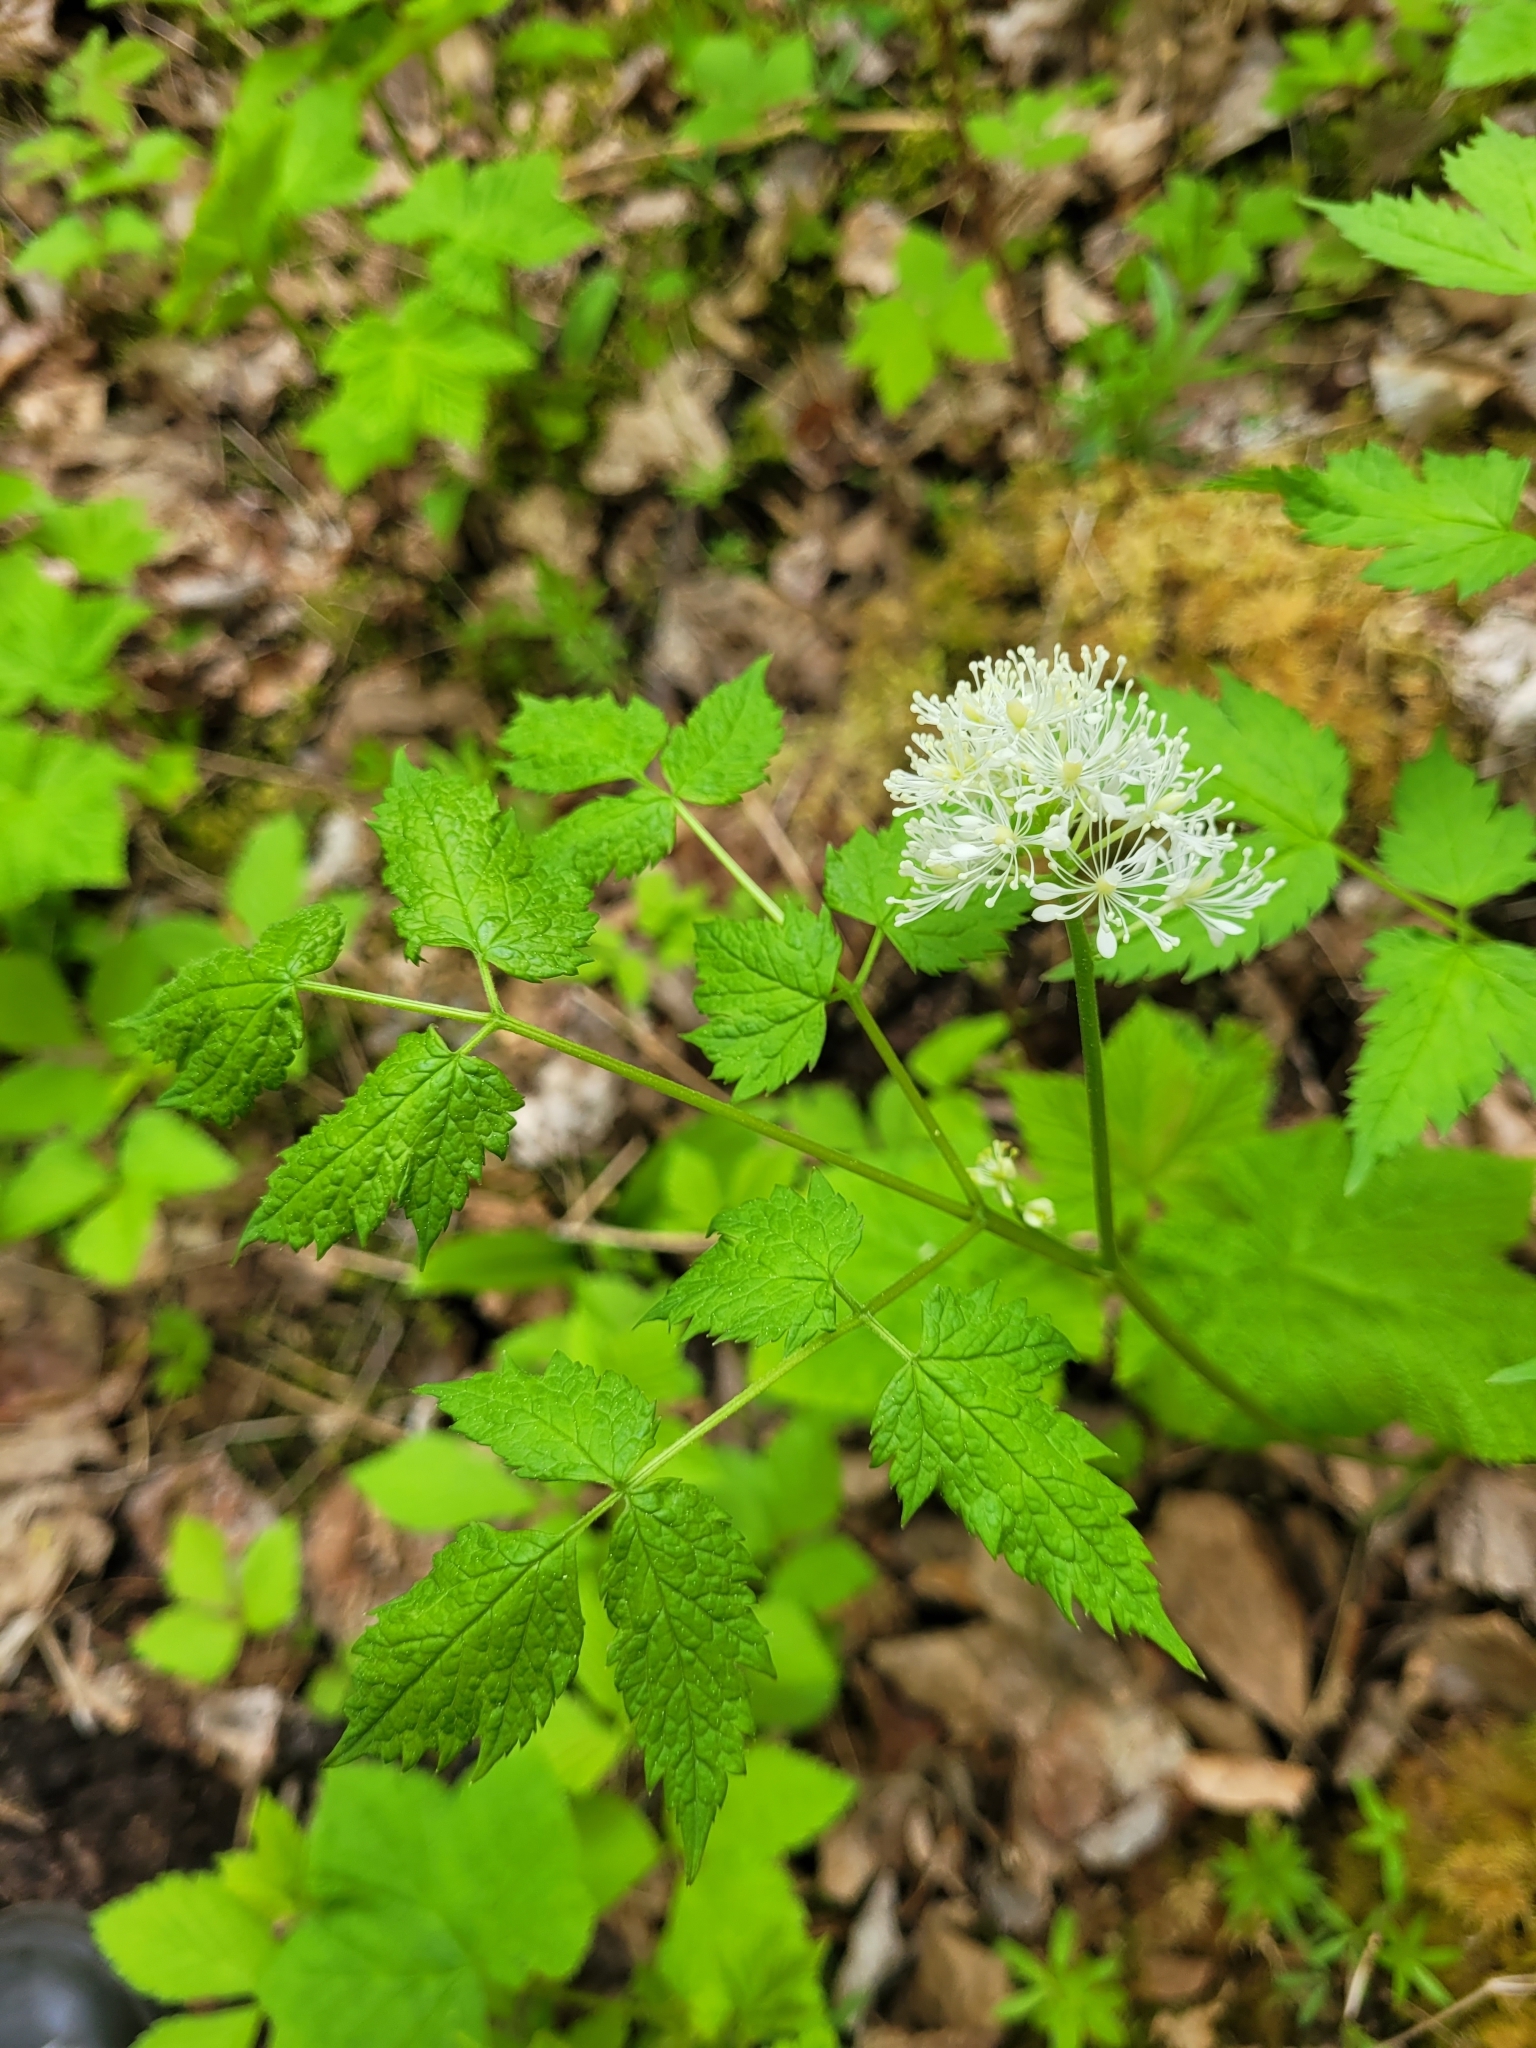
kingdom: Plantae
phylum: Tracheophyta
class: Magnoliopsida
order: Ranunculales
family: Ranunculaceae
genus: Actaea
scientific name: Actaea rubra
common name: Red baneberry
